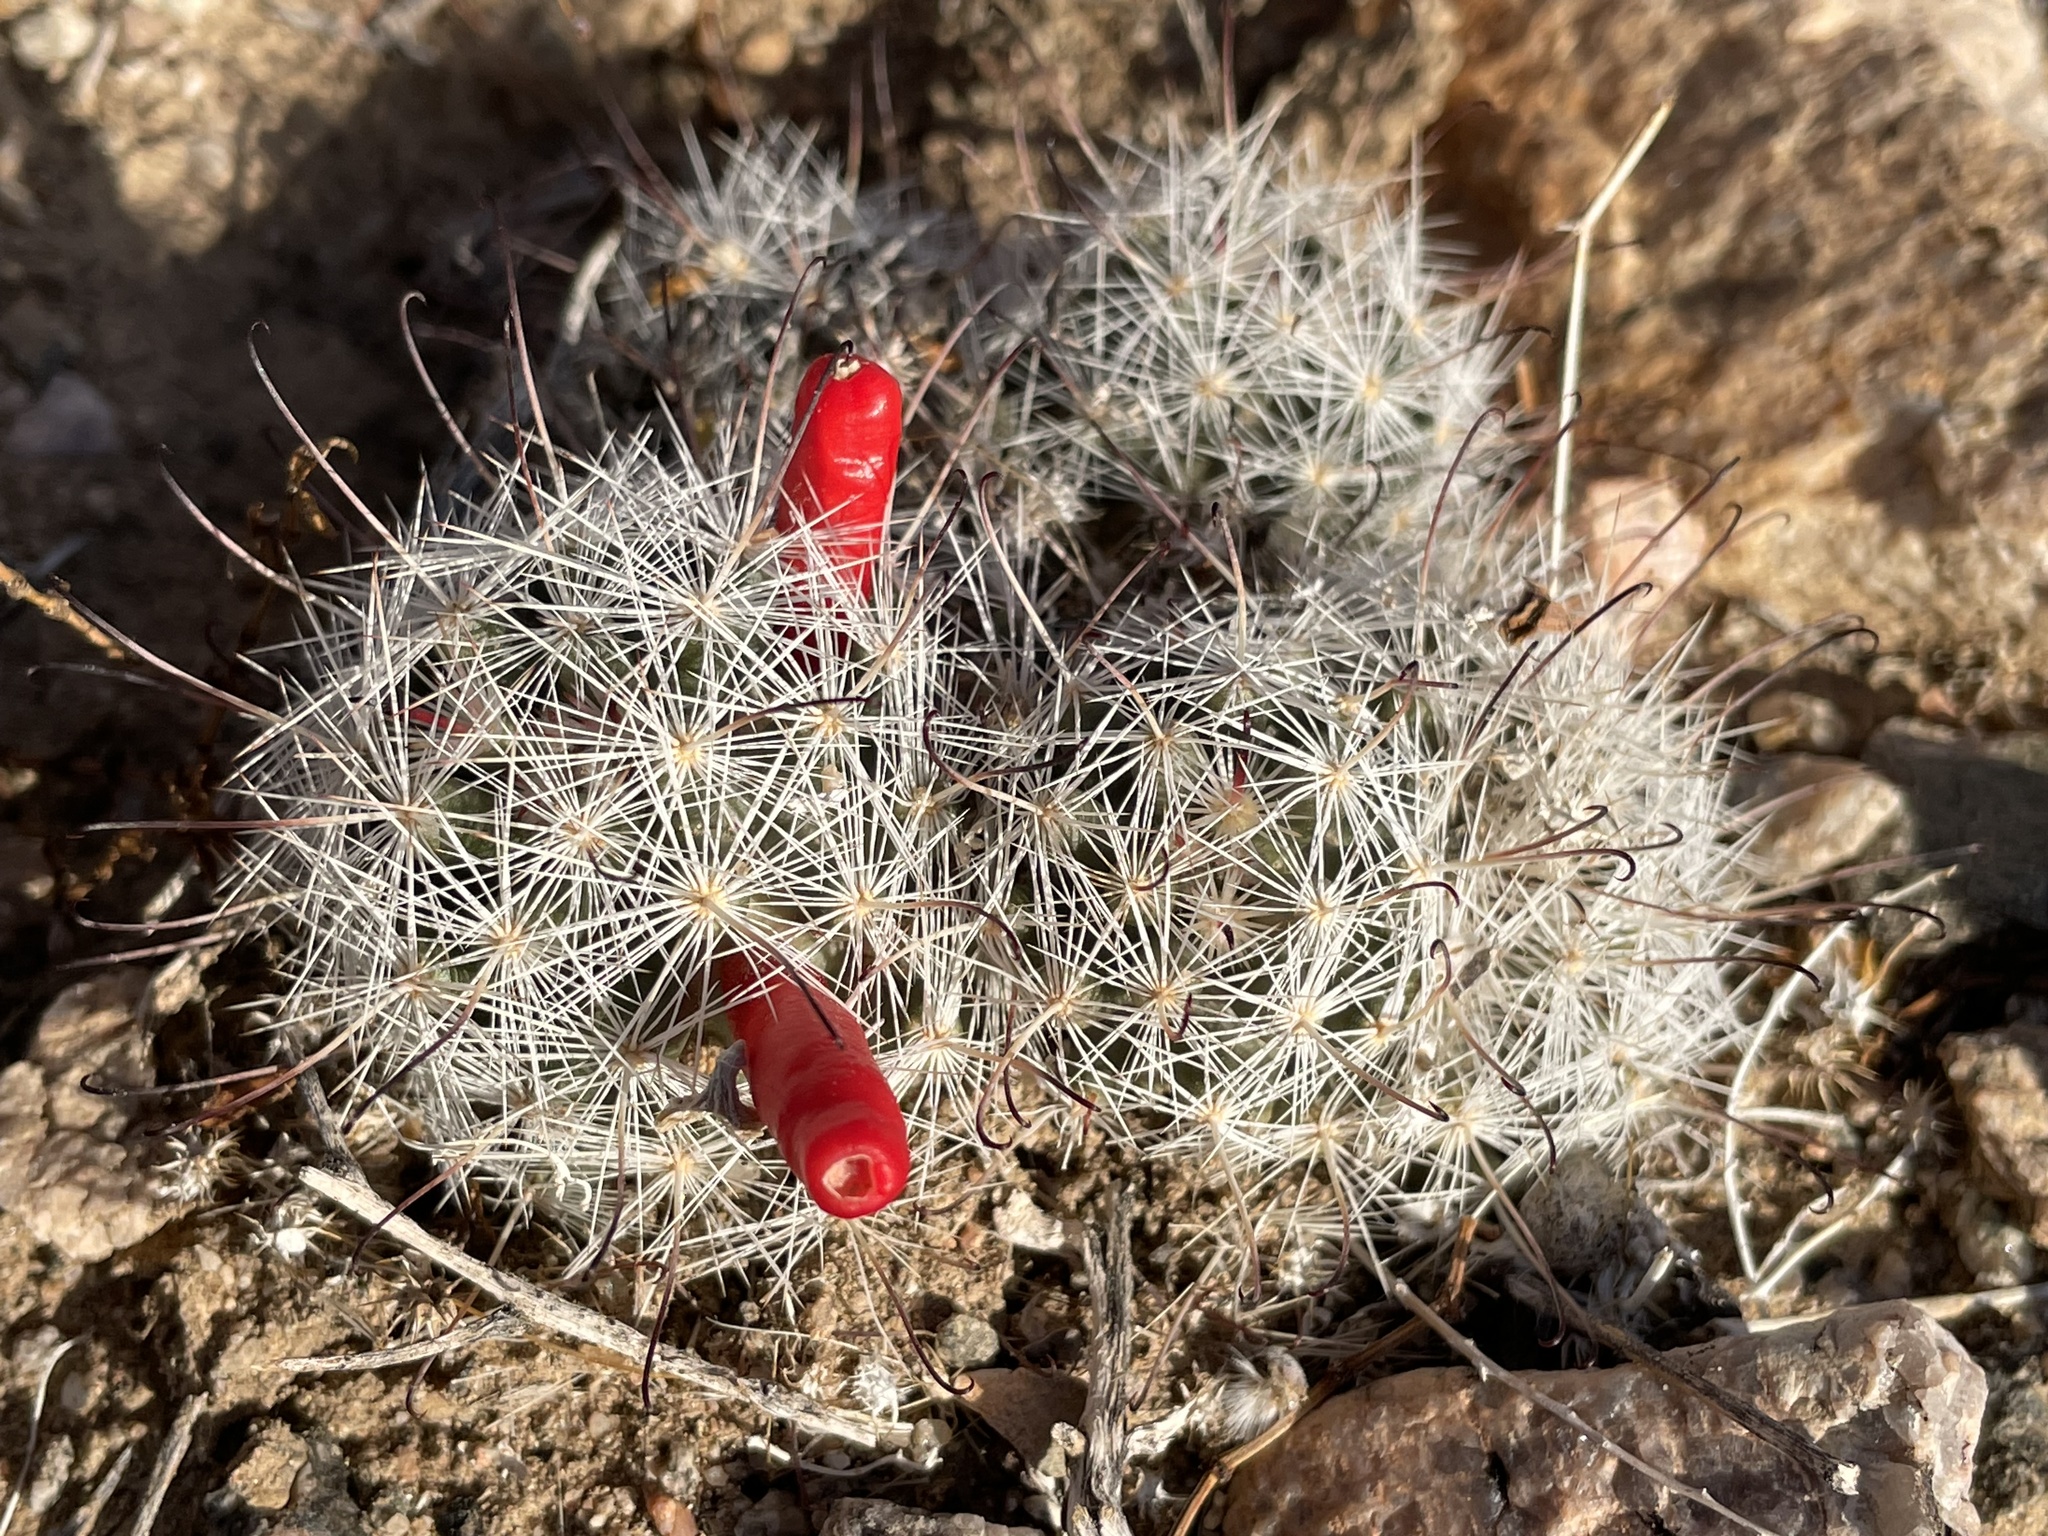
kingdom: Plantae
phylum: Tracheophyta
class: Magnoliopsida
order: Caryophyllales
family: Cactaceae
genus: Cochemiea
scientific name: Cochemiea tetrancistra
